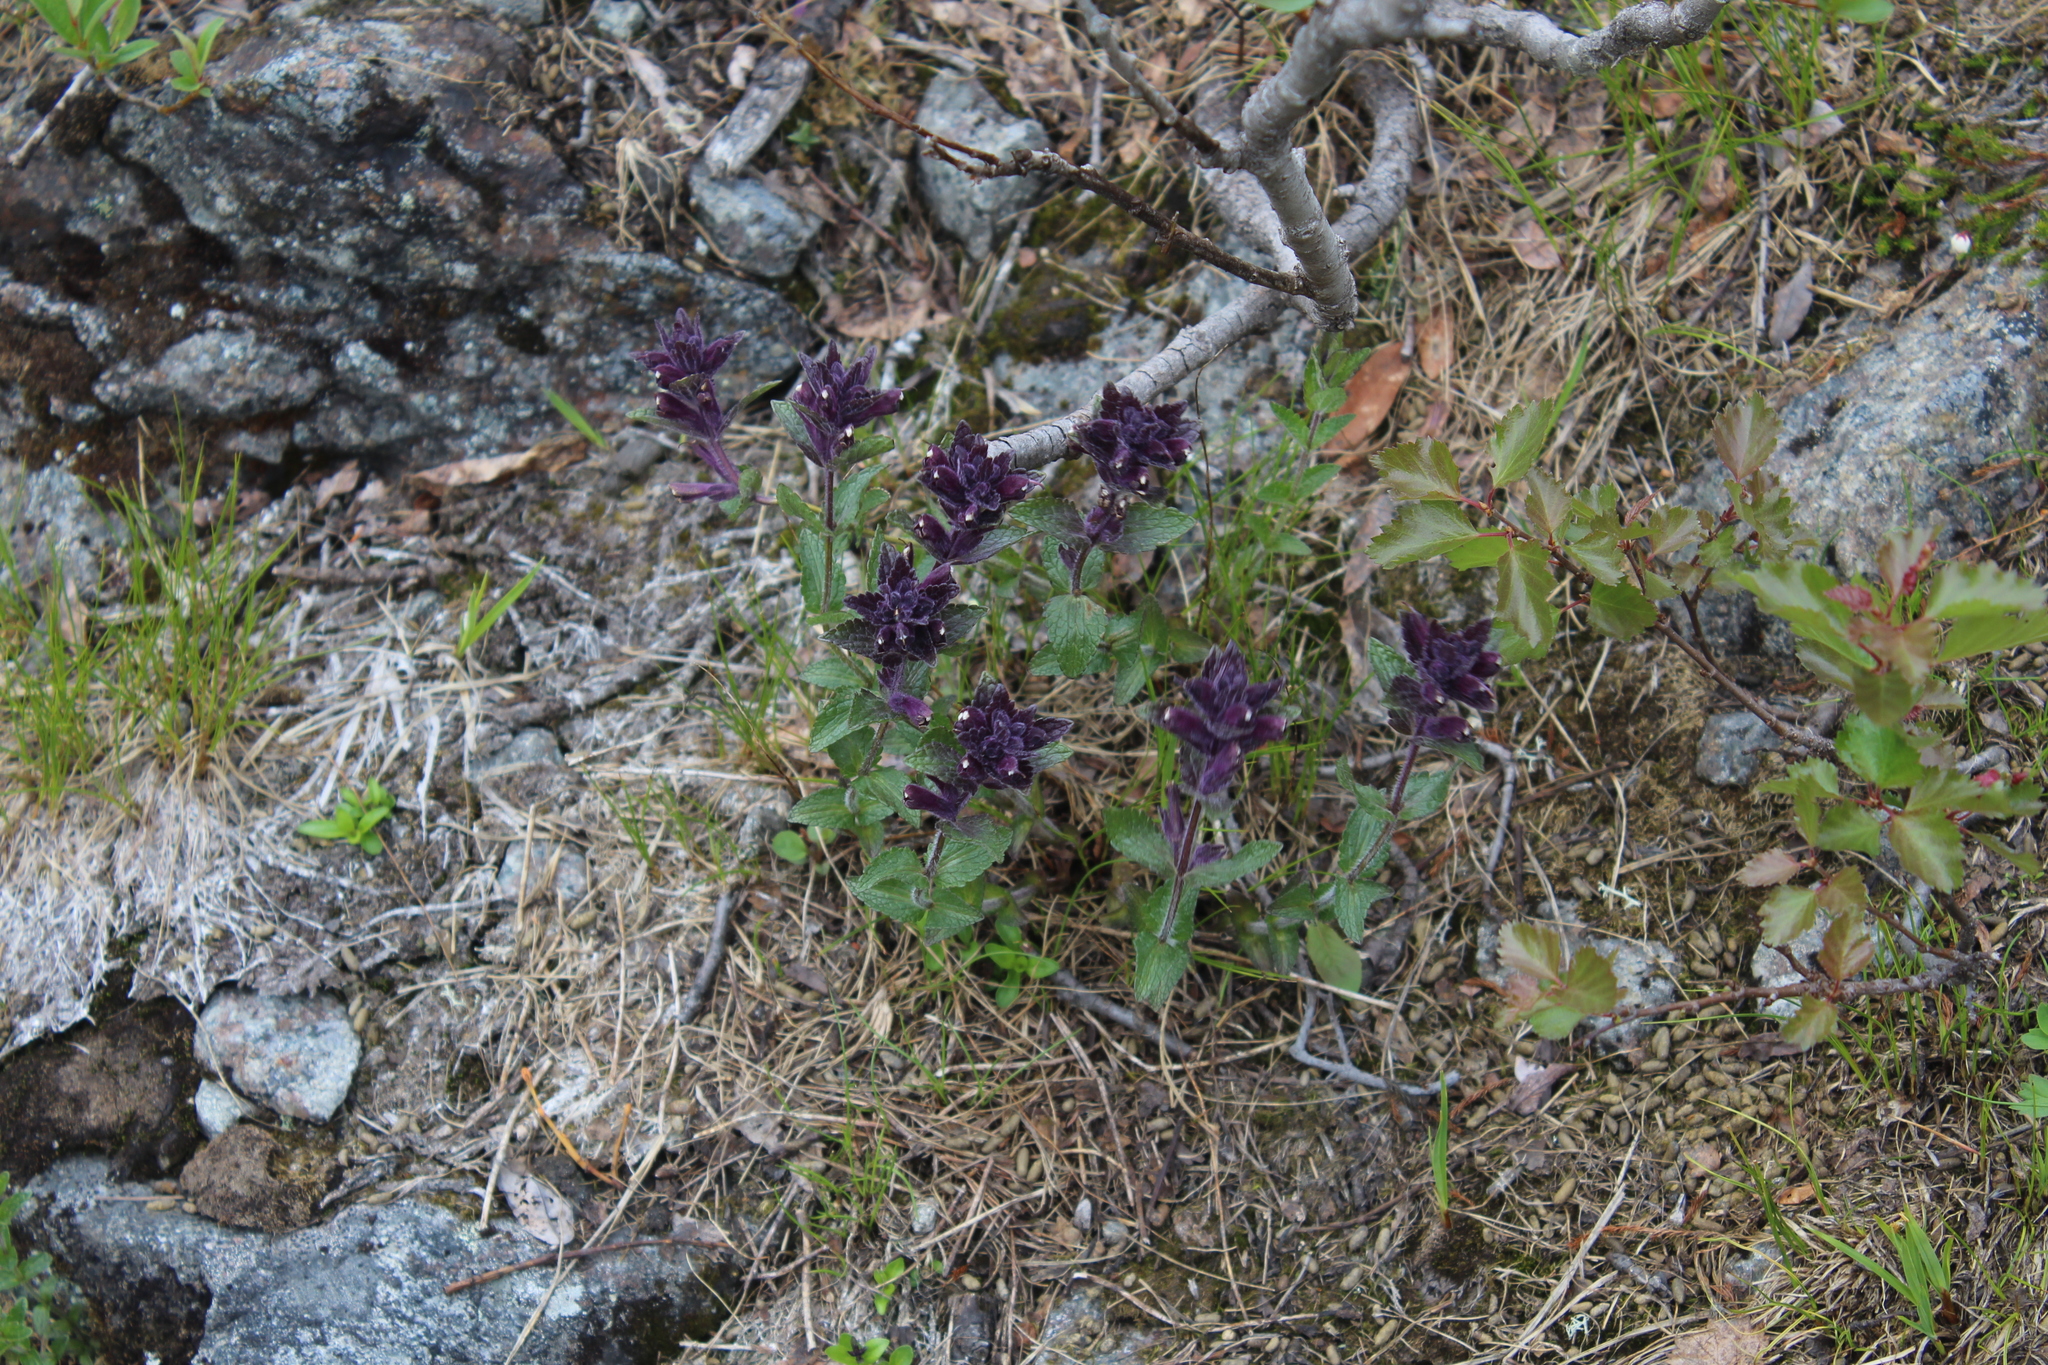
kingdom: Plantae
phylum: Tracheophyta
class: Magnoliopsida
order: Lamiales
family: Orobanchaceae
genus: Bartsia
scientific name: Bartsia alpina
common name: Alpine bartsia
